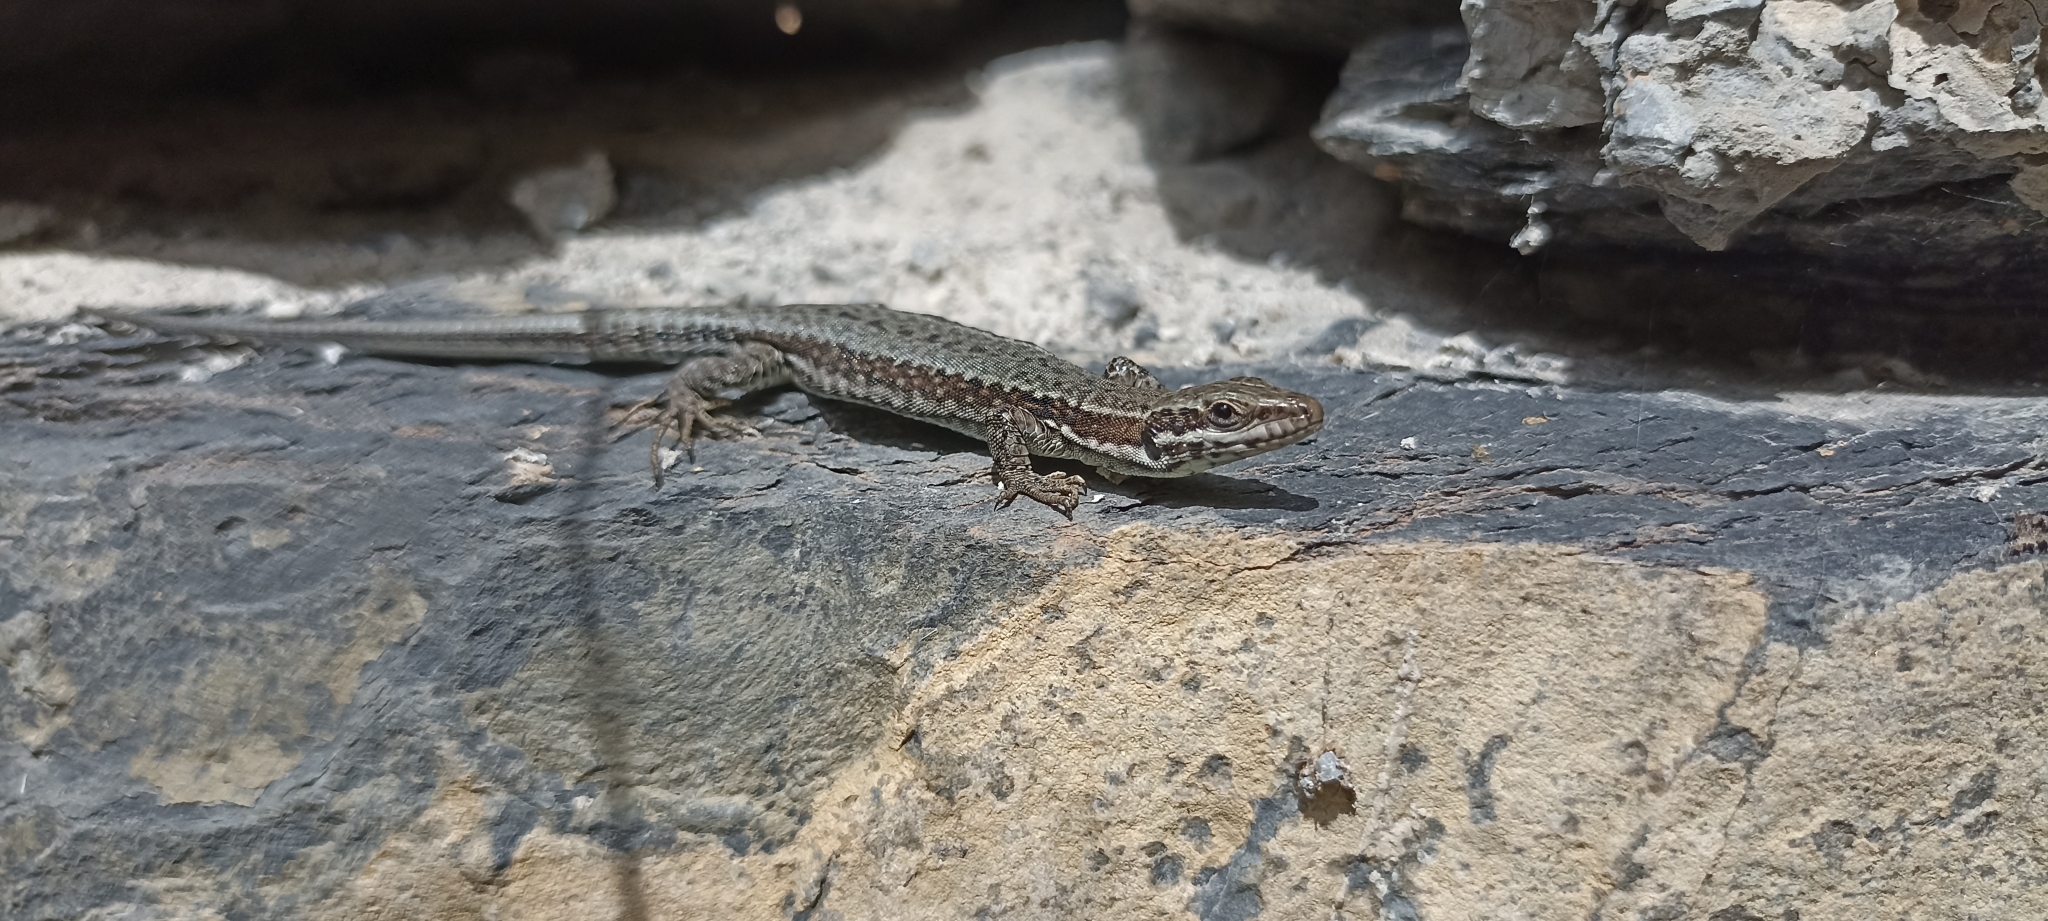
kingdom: Animalia
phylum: Chordata
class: Squamata
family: Lacertidae
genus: Podarcis
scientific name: Podarcis muralis
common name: Common wall lizard
